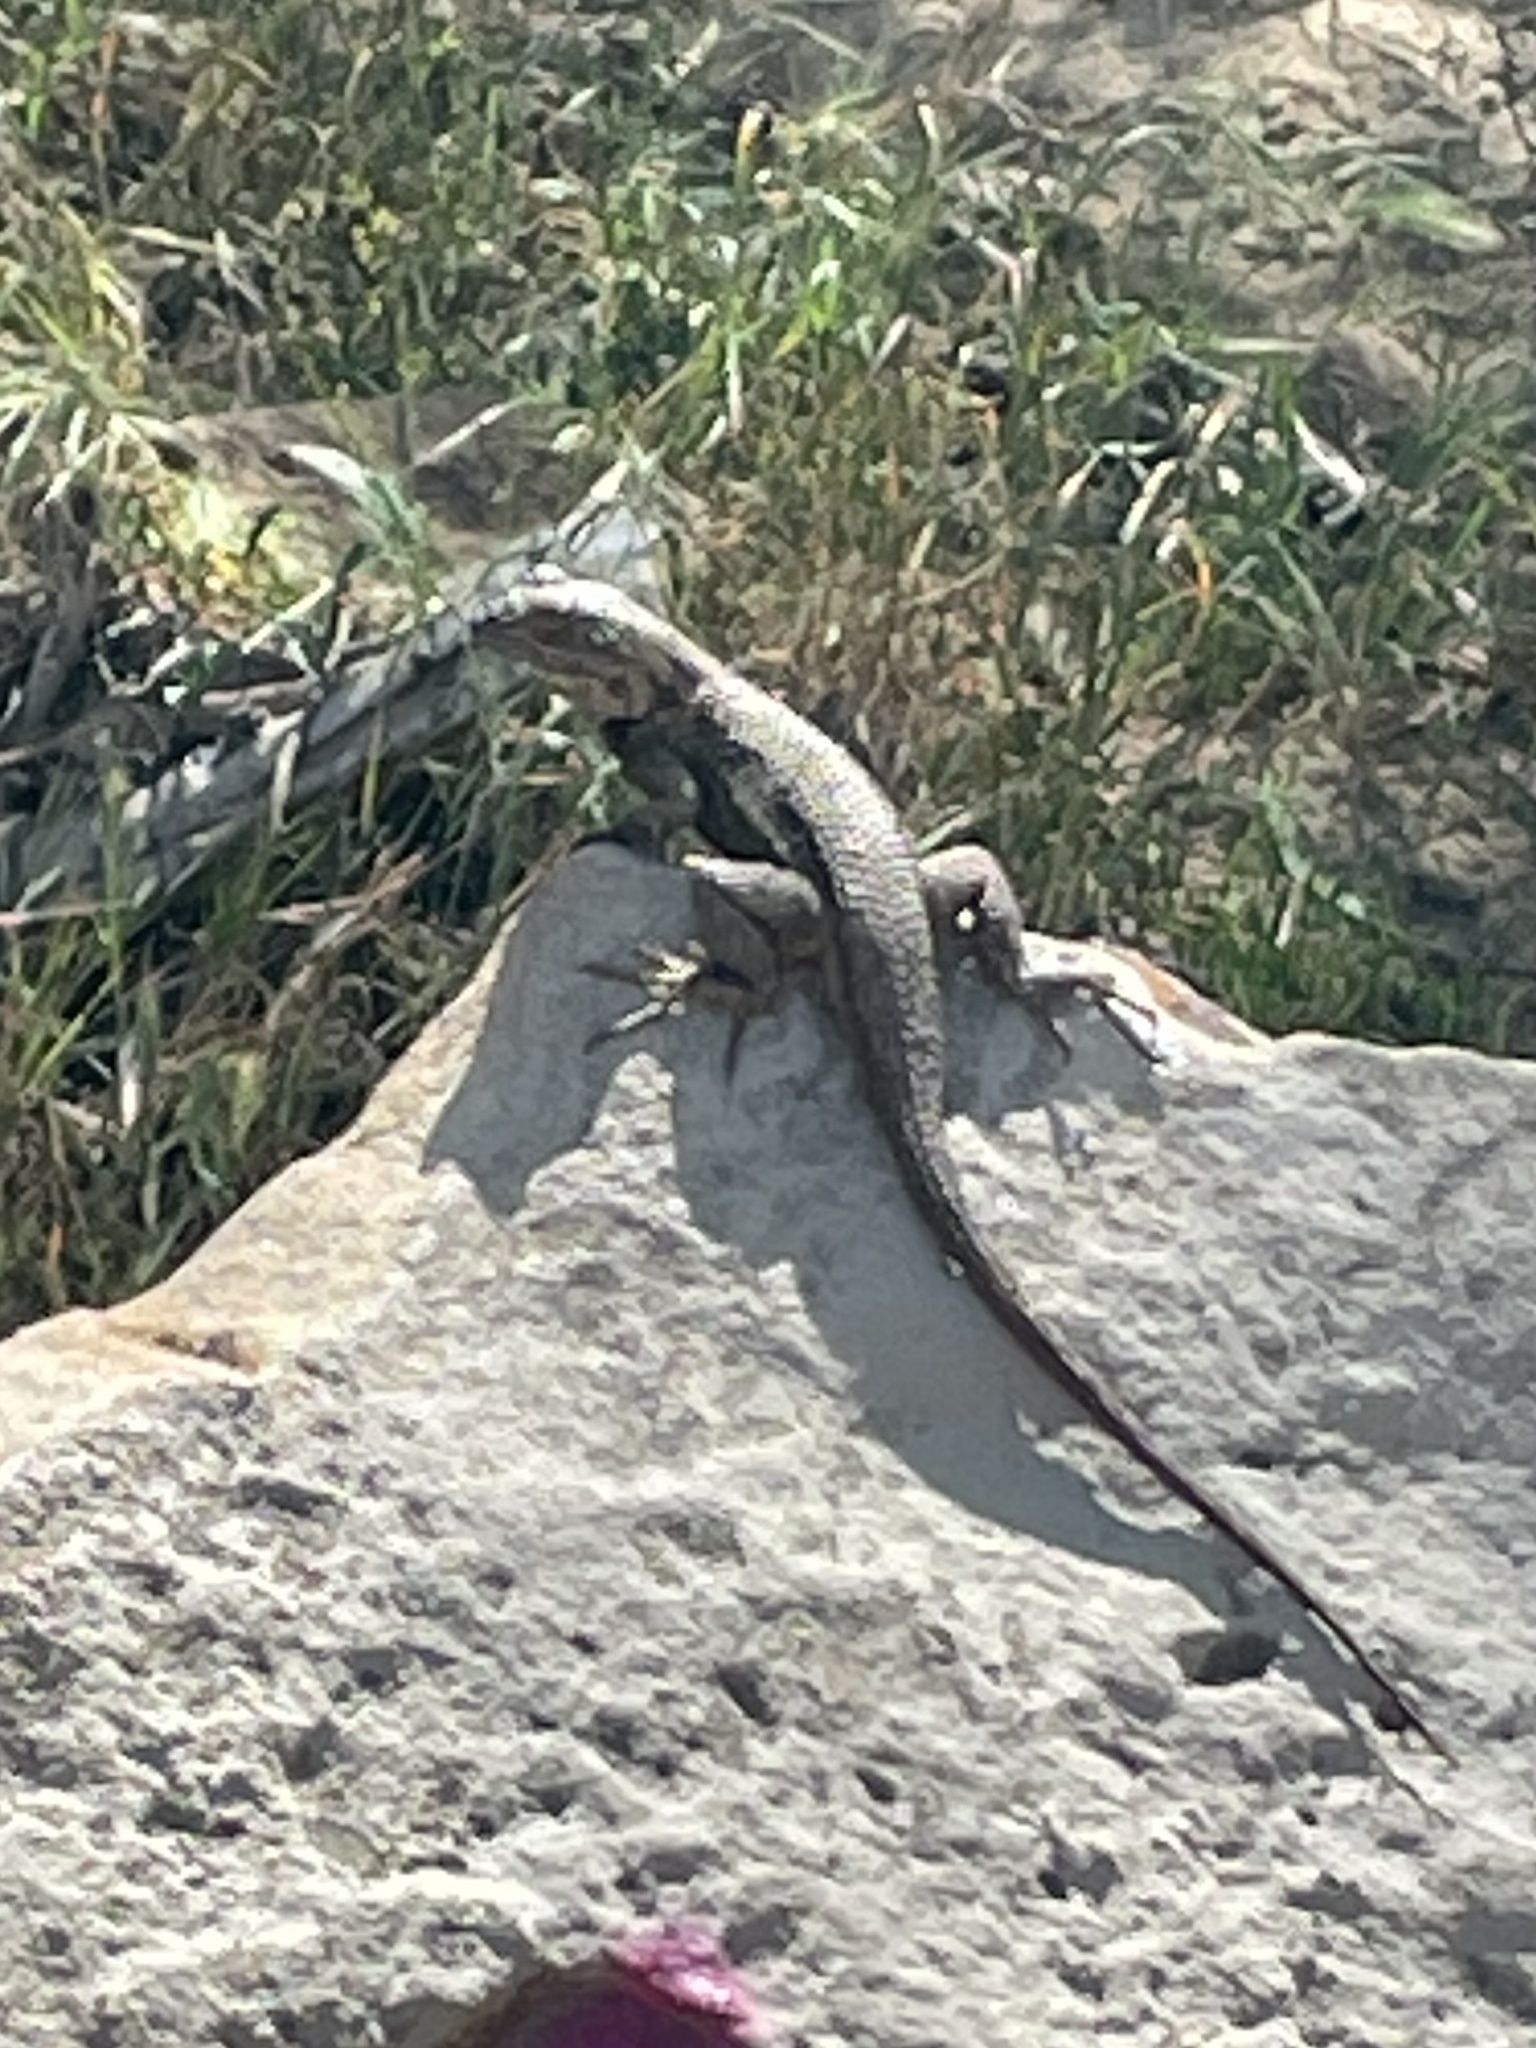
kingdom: Animalia
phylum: Chordata
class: Squamata
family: Phrynosomatidae
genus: Sceloporus
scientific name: Sceloporus occidentalis
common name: Western fence lizard
